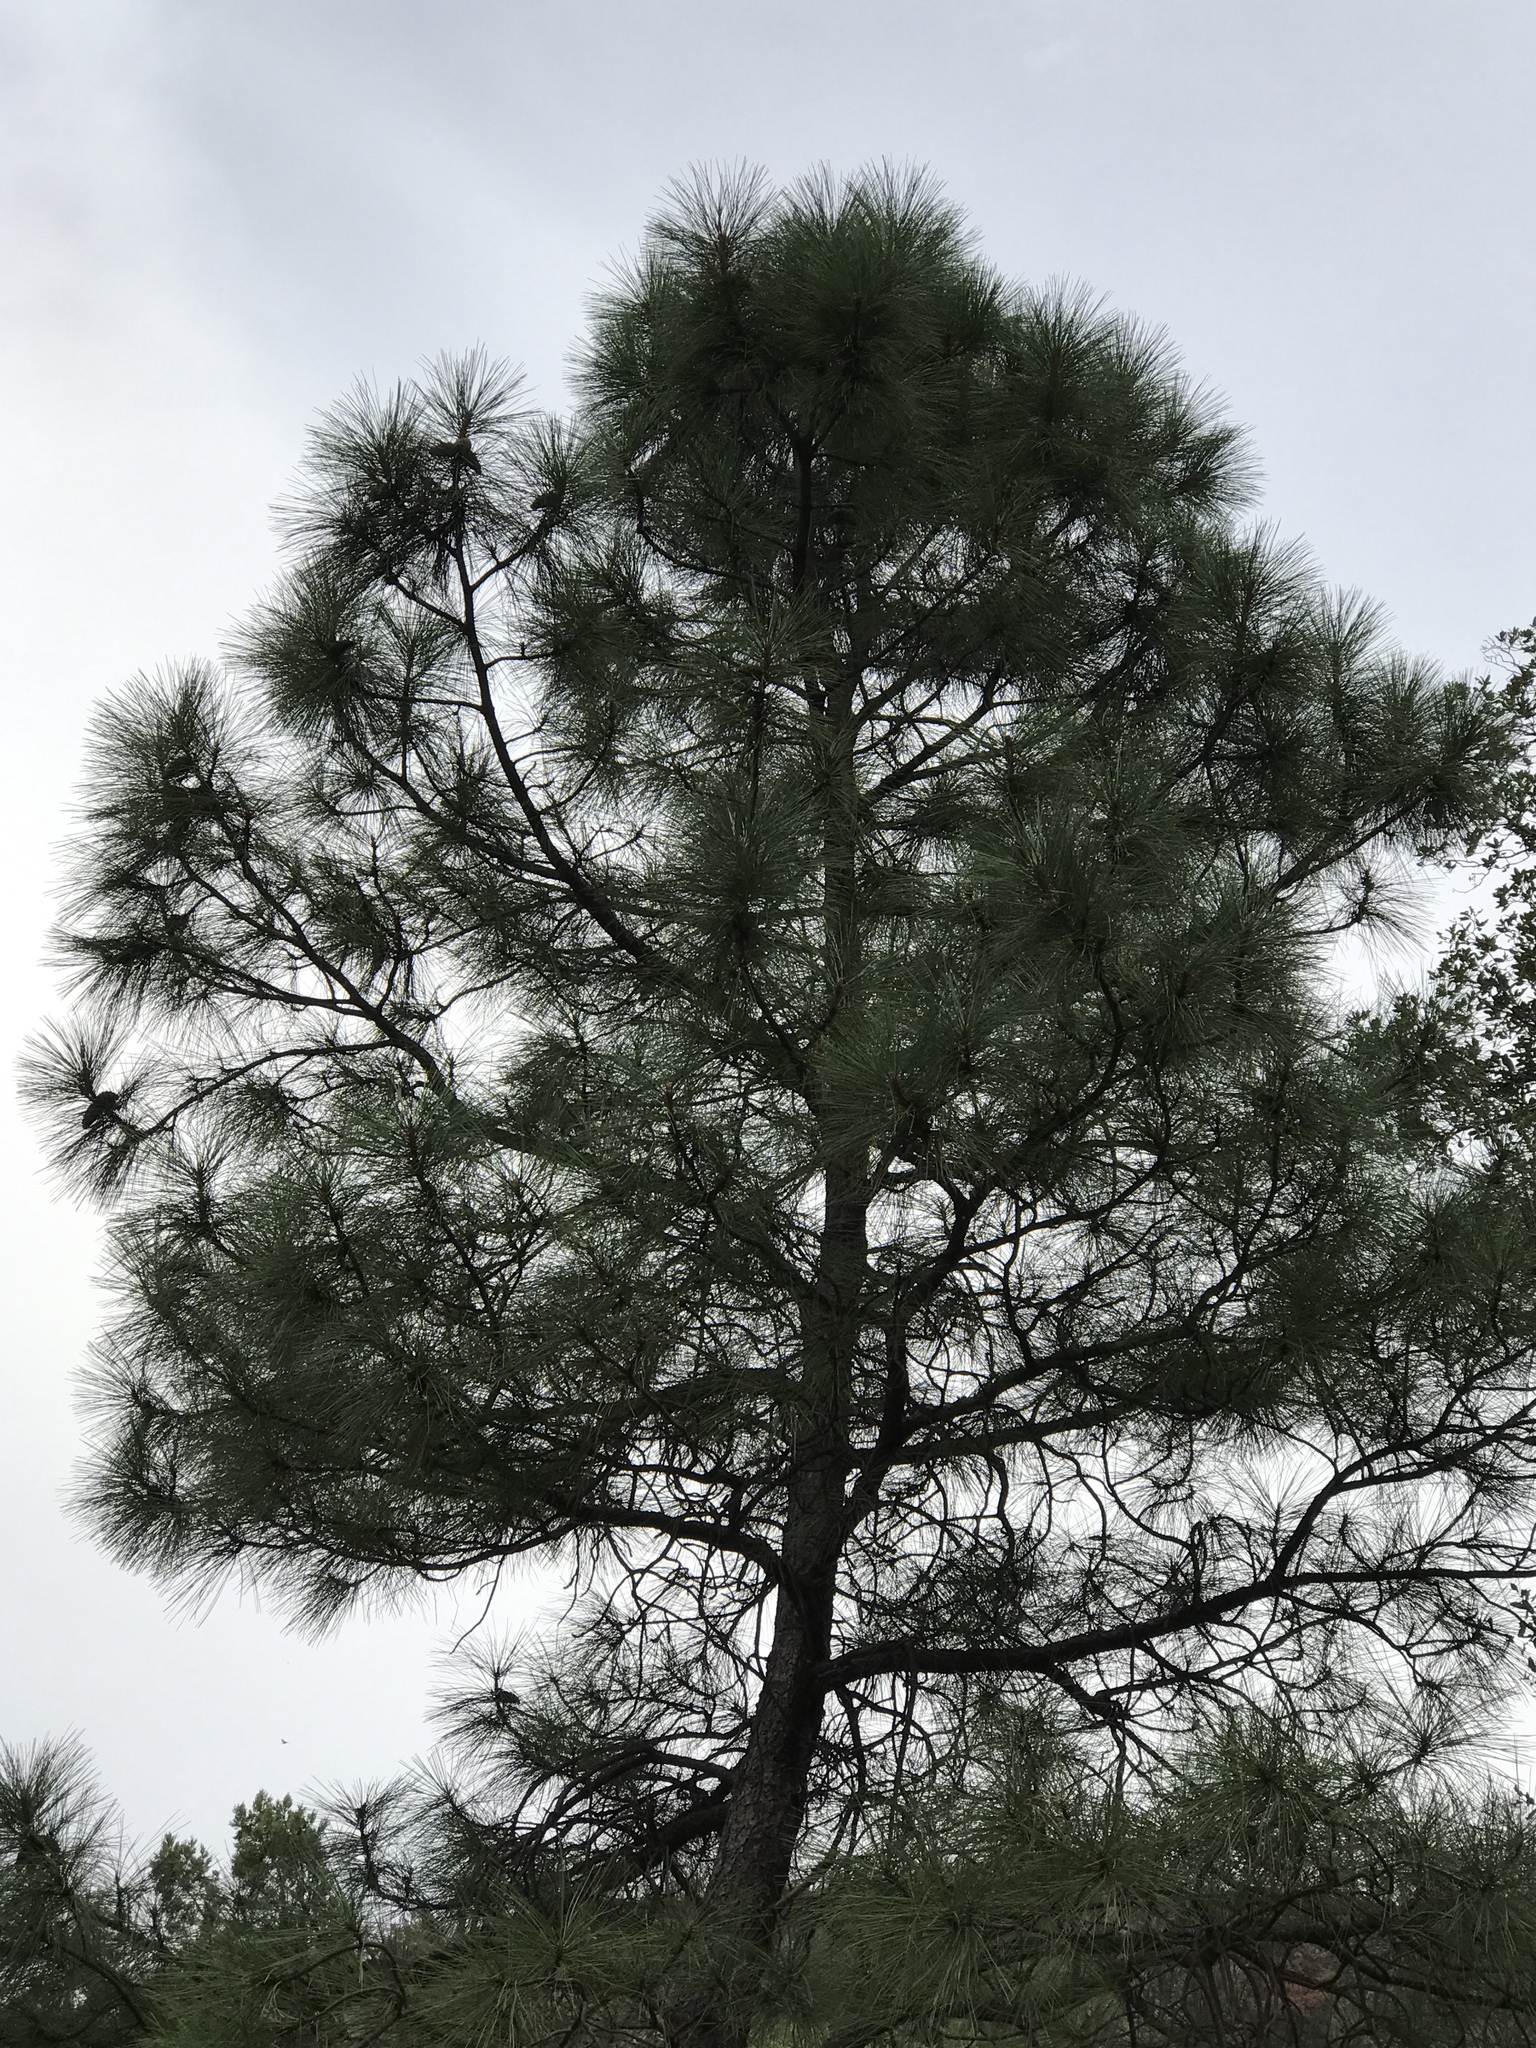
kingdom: Plantae
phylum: Tracheophyta
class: Pinopsida
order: Pinales
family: Pinaceae
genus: Pinus
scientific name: Pinus ponderosa
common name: Western yellow-pine
